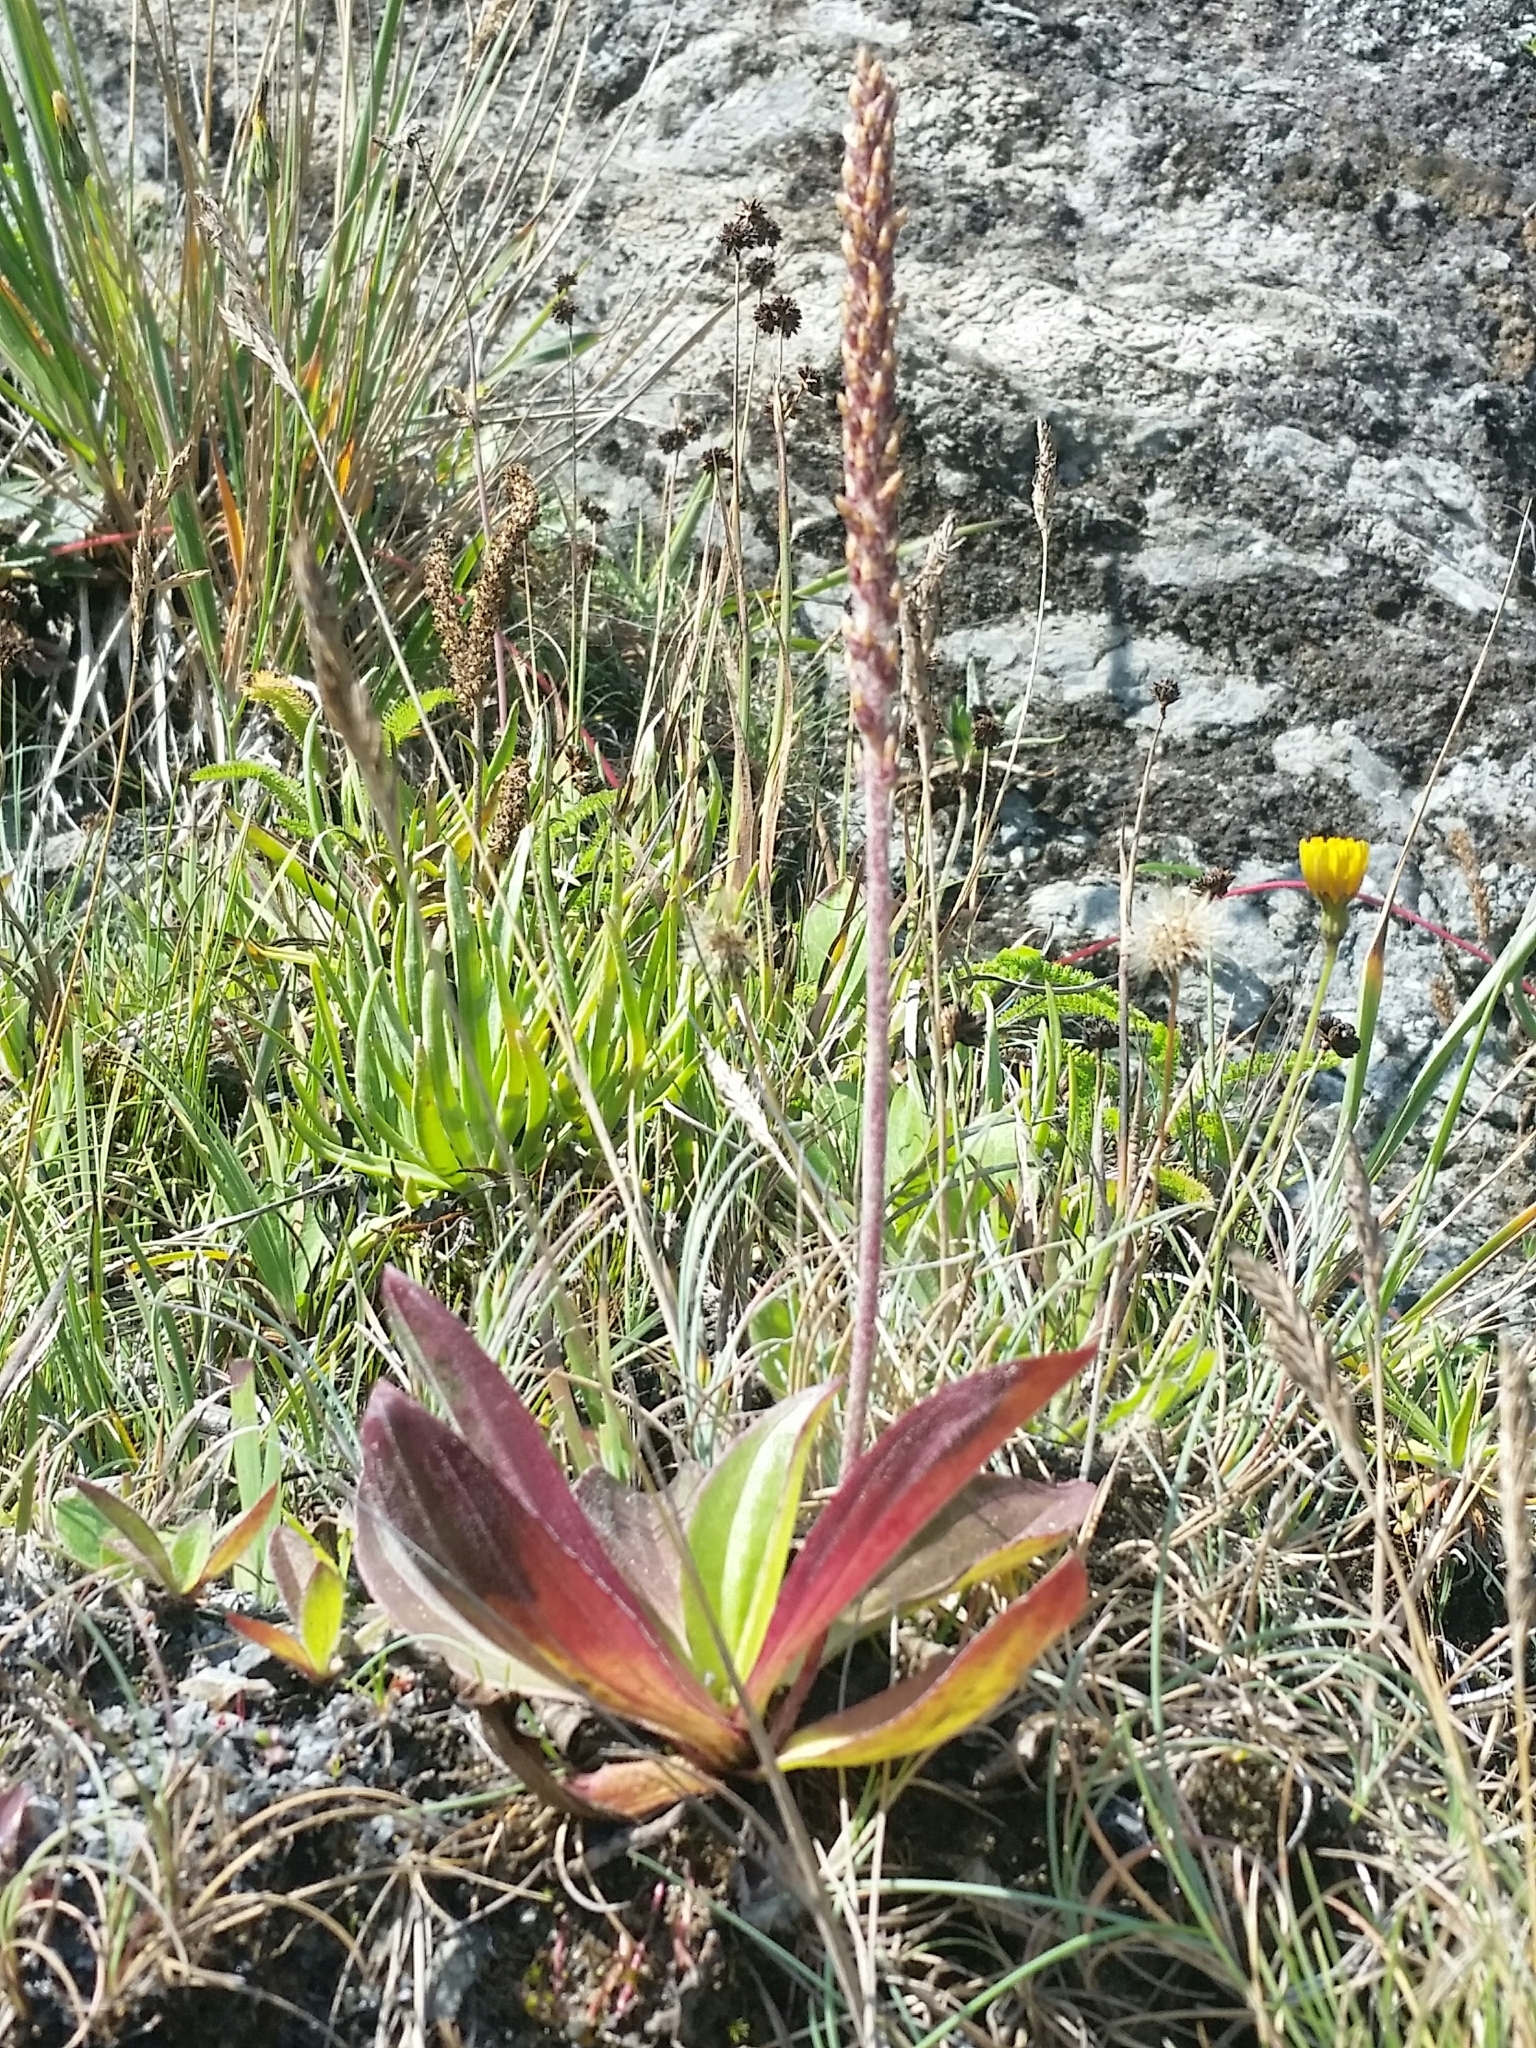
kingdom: Plantae
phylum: Tracheophyta
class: Magnoliopsida
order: Lamiales
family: Plantaginaceae
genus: Plantago
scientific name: Plantago subnuda
